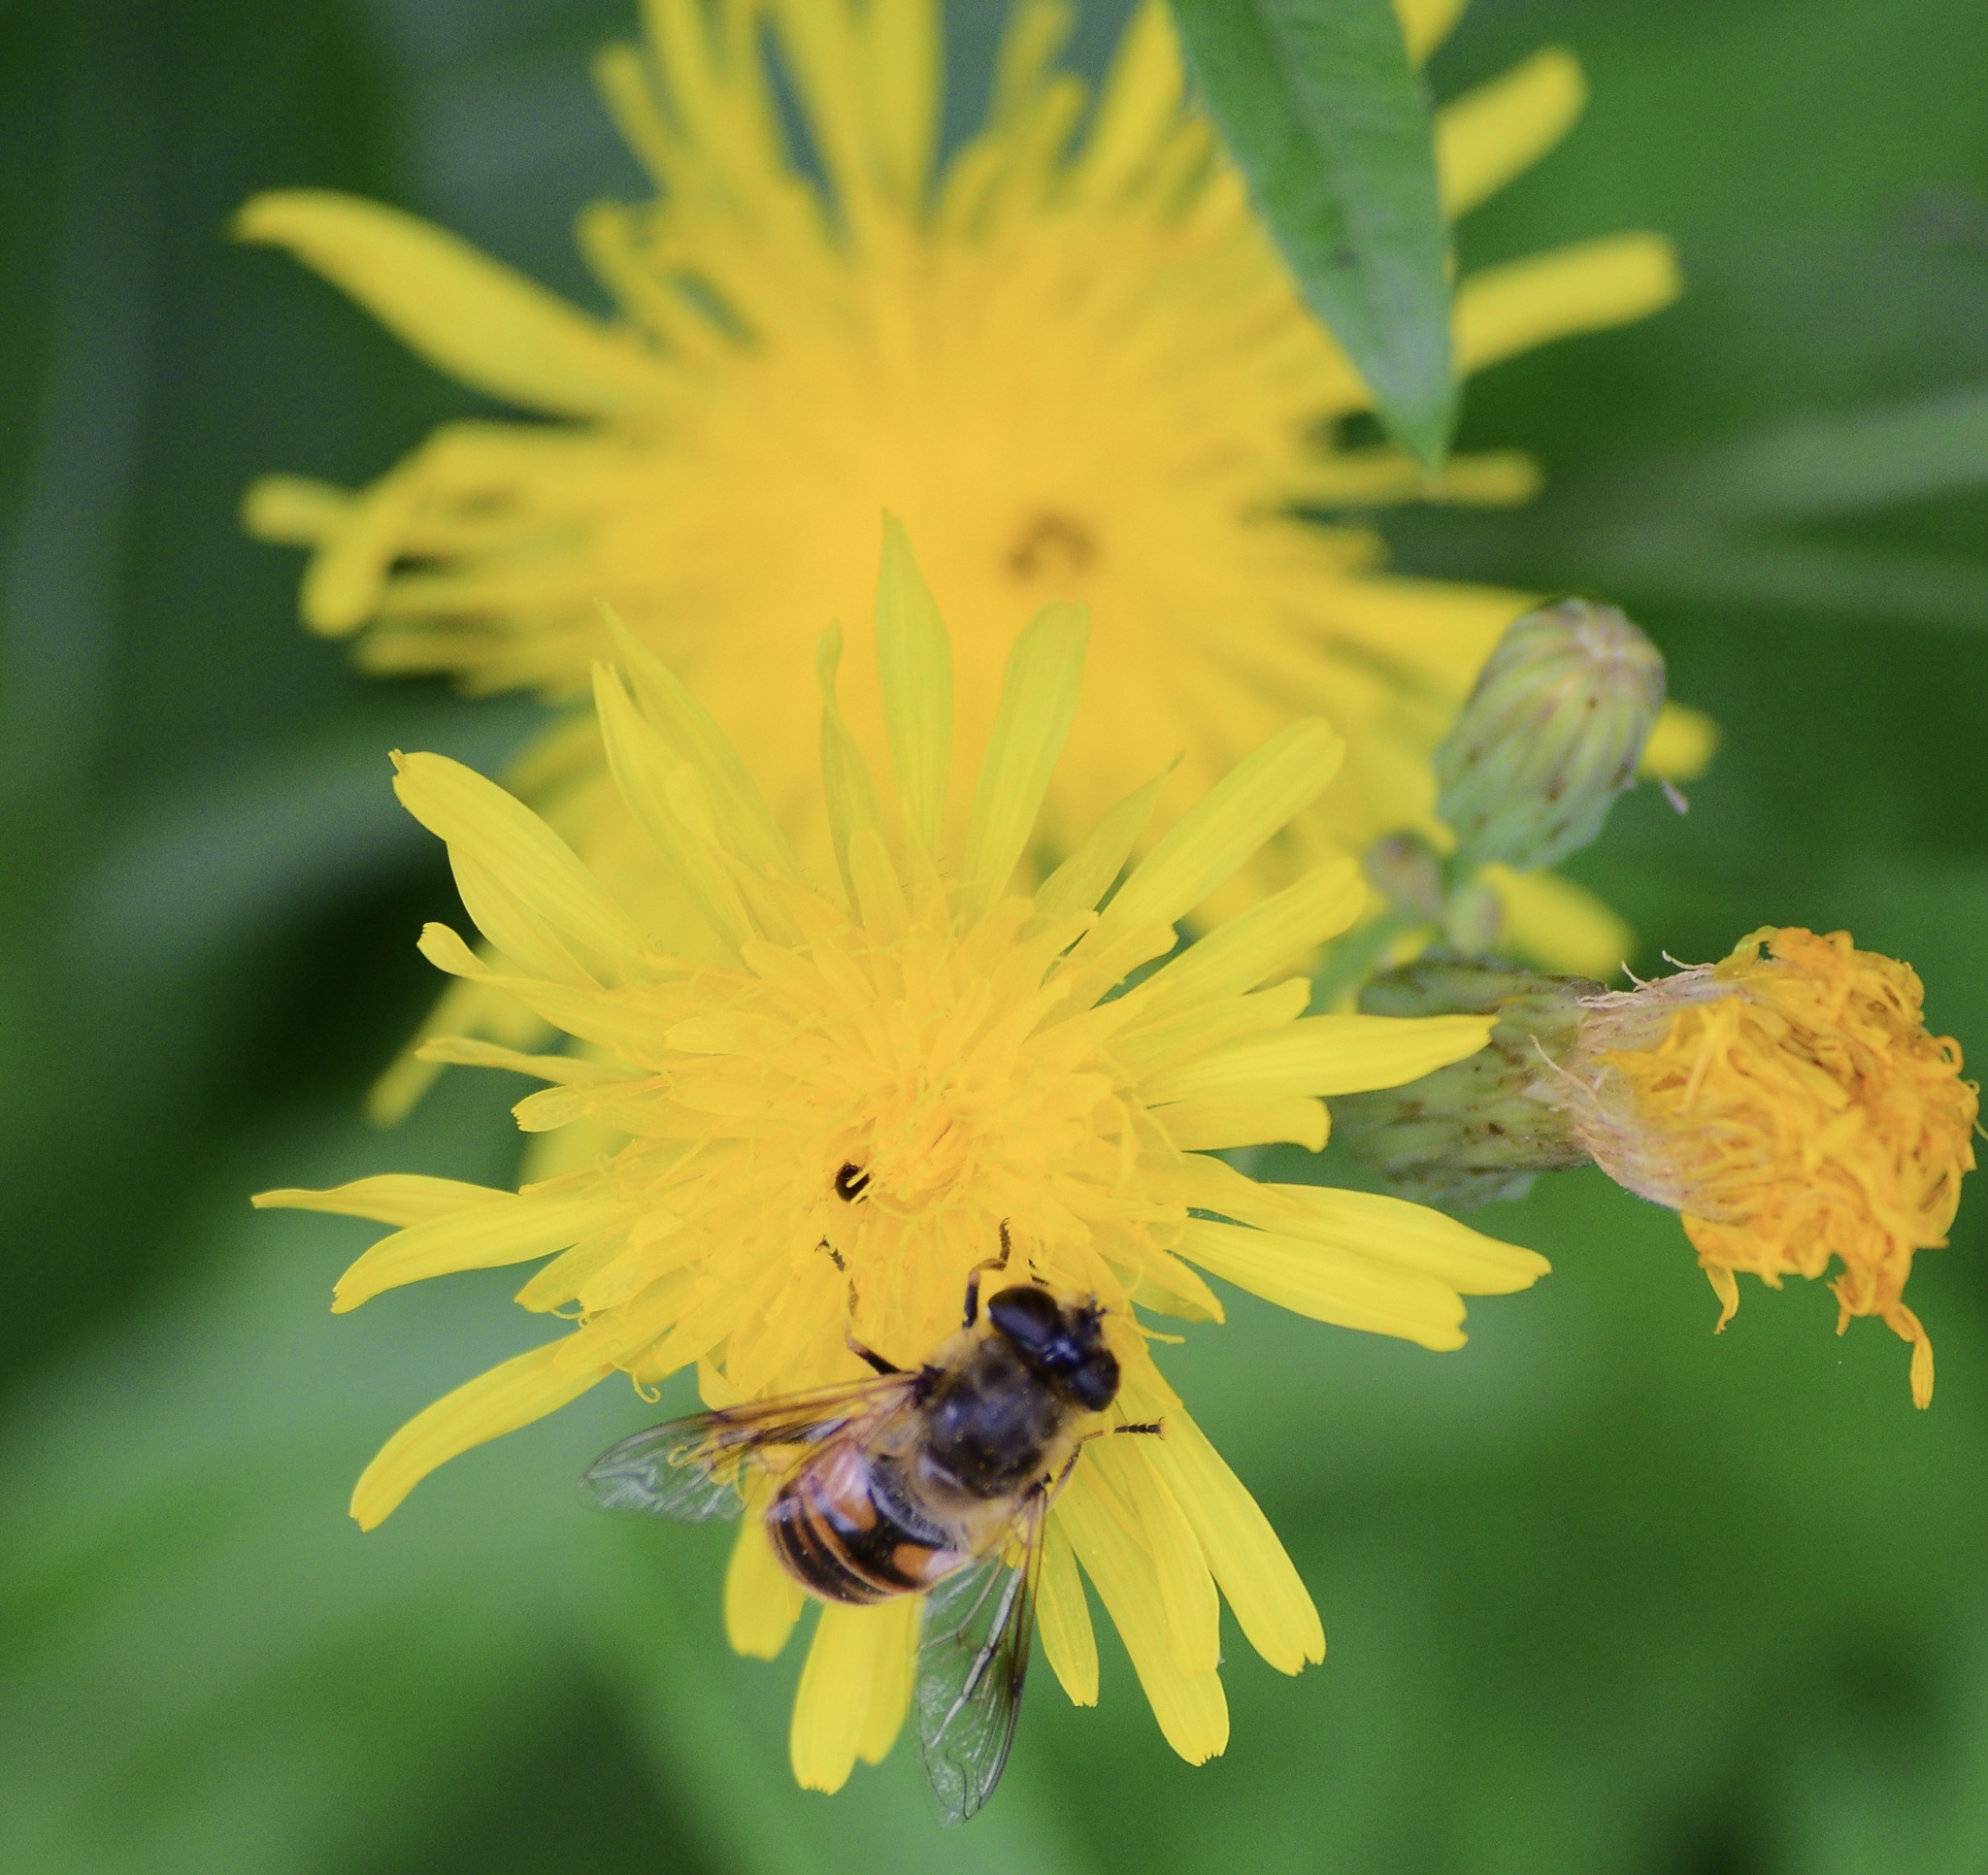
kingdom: Animalia
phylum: Arthropoda
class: Insecta
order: Diptera
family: Syrphidae
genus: Eristalis
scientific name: Eristalis tenax
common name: Drone fly
